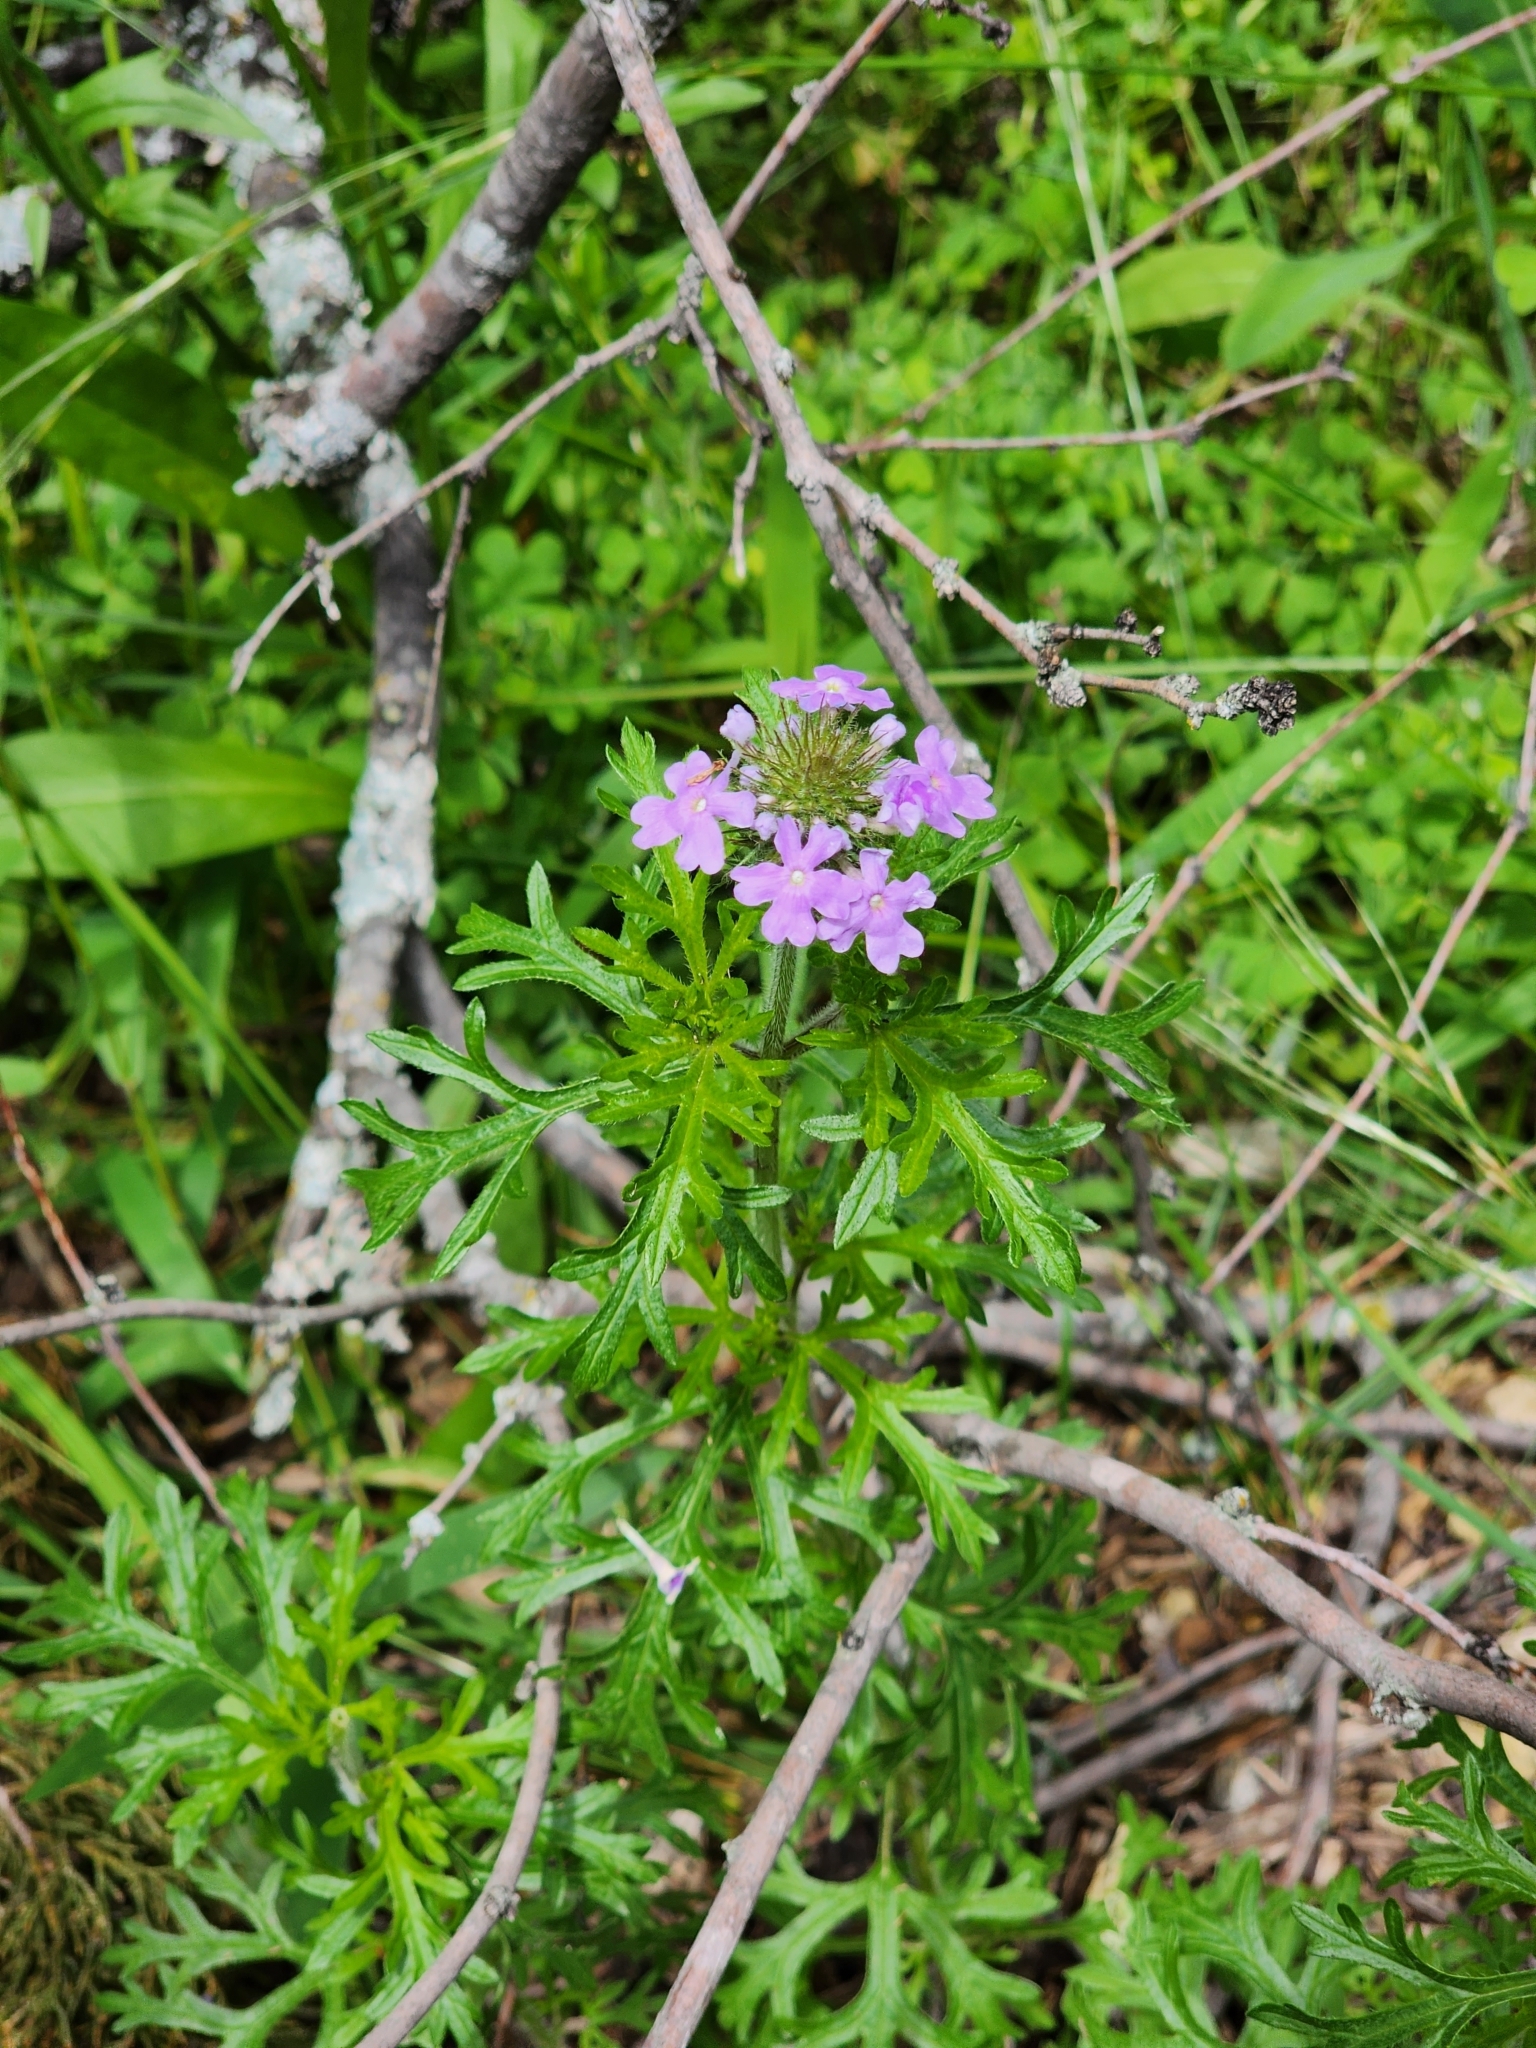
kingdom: Plantae
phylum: Tracheophyta
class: Magnoliopsida
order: Lamiales
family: Verbenaceae
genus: Verbena
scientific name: Verbena bipinnatifida
